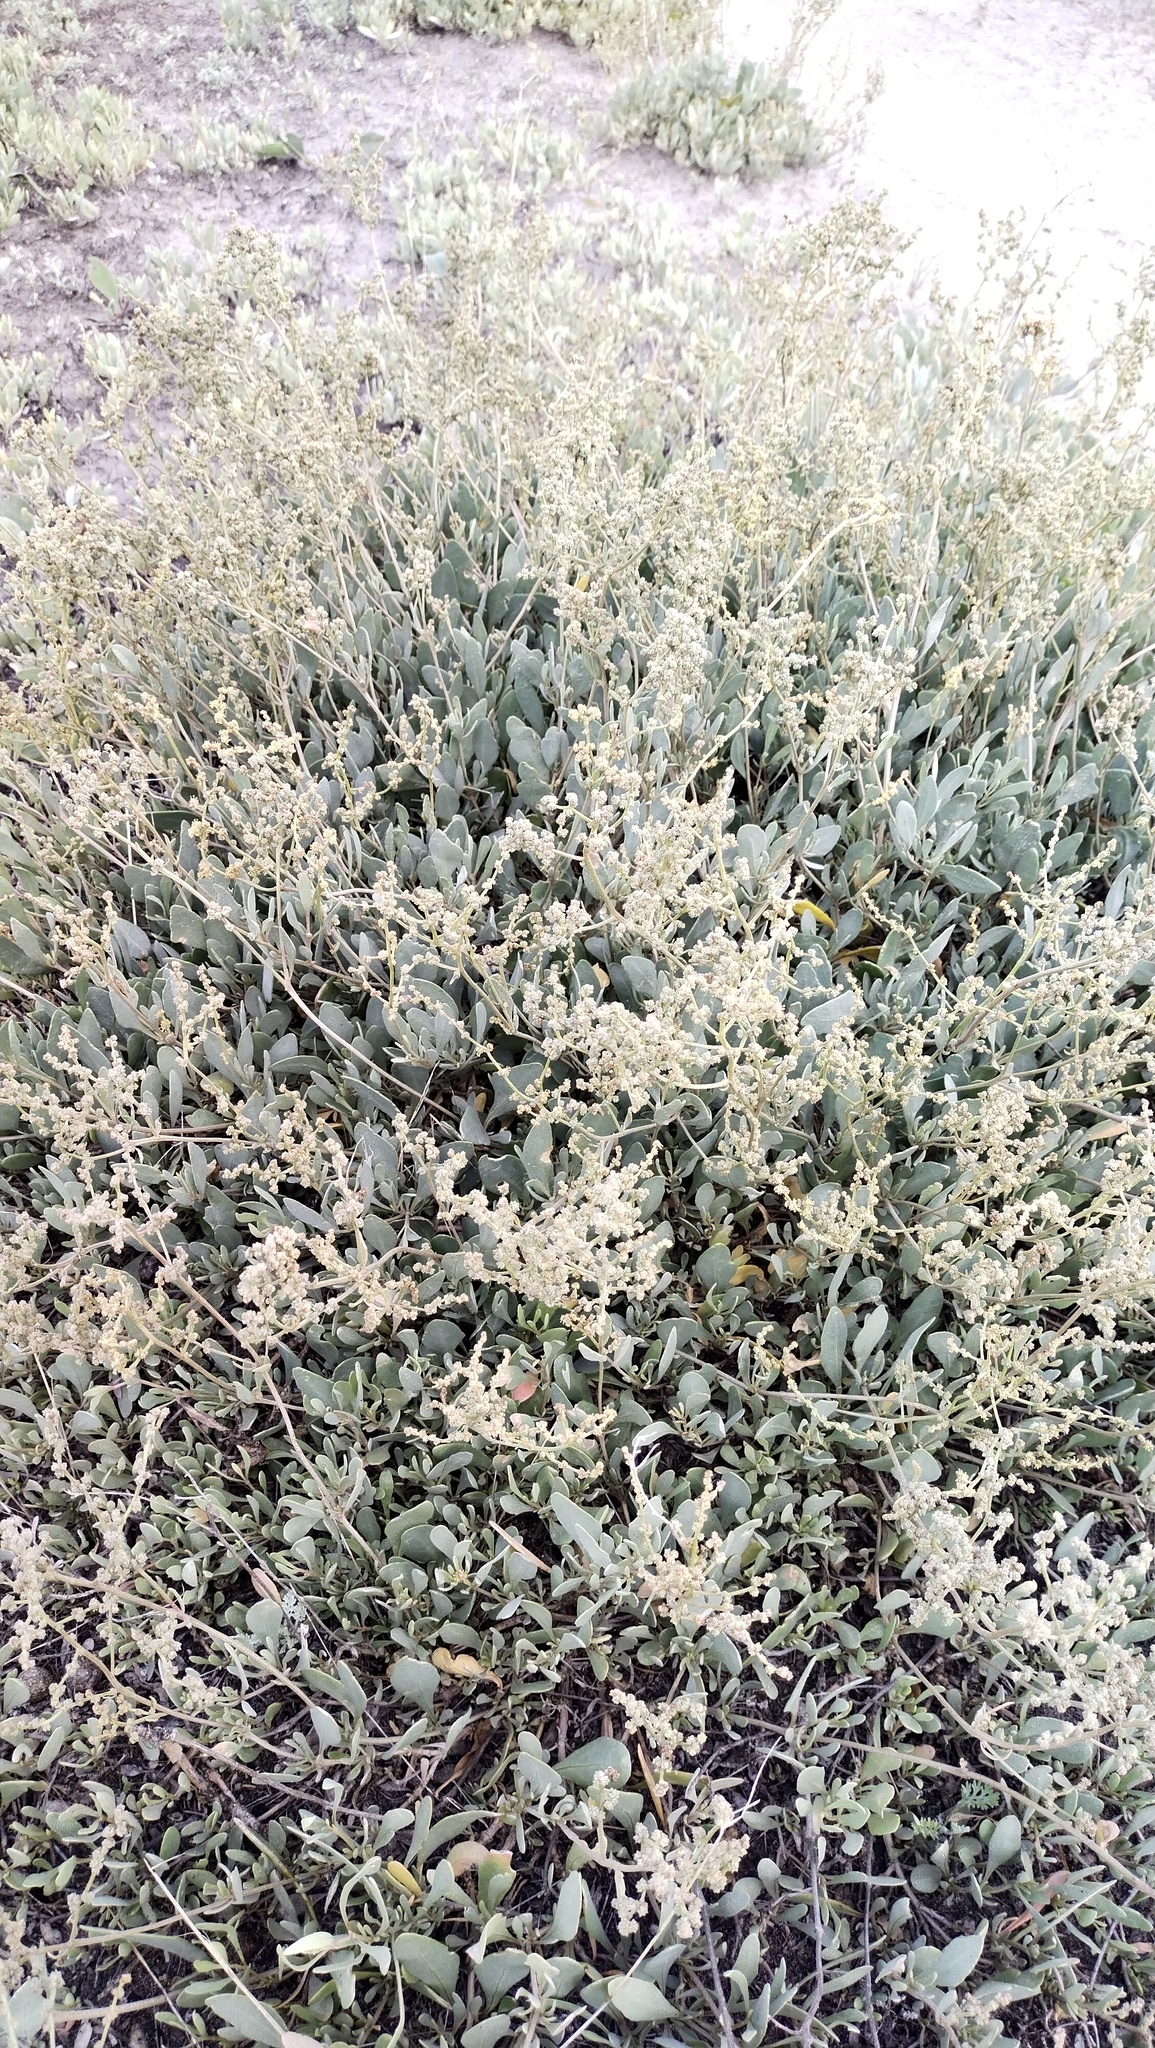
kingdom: Plantae
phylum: Tracheophyta
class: Magnoliopsida
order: Caryophyllales
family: Amaranthaceae
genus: Halimione
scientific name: Halimione verrucifera
